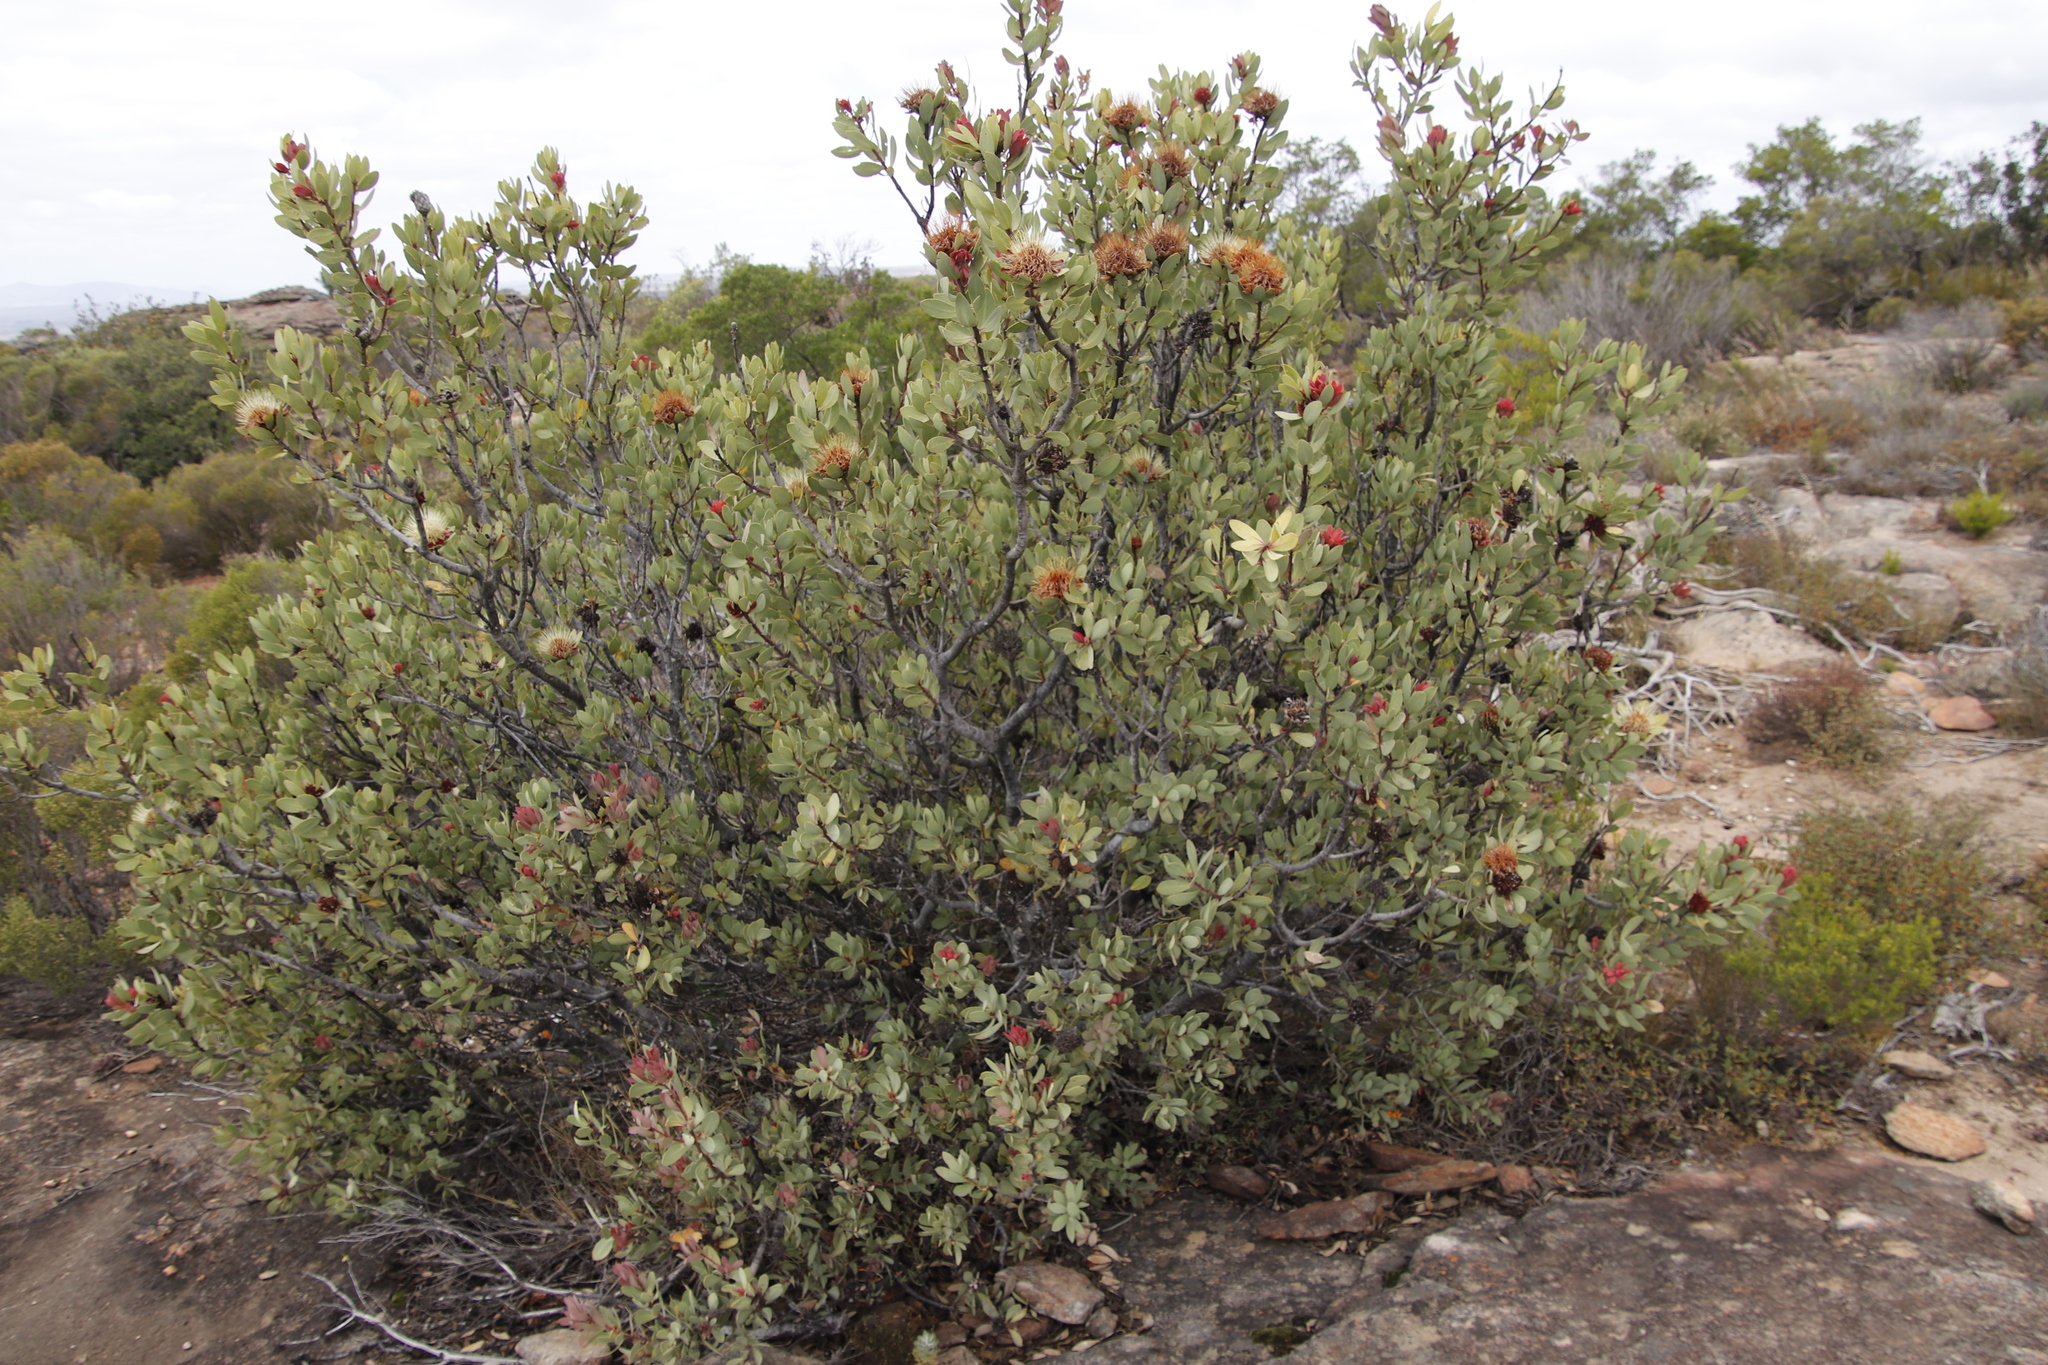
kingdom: Plantae
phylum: Tracheophyta
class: Magnoliopsida
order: Proteales
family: Proteaceae
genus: Protea
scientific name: Protea glabra
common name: Chestnut sugarbush
